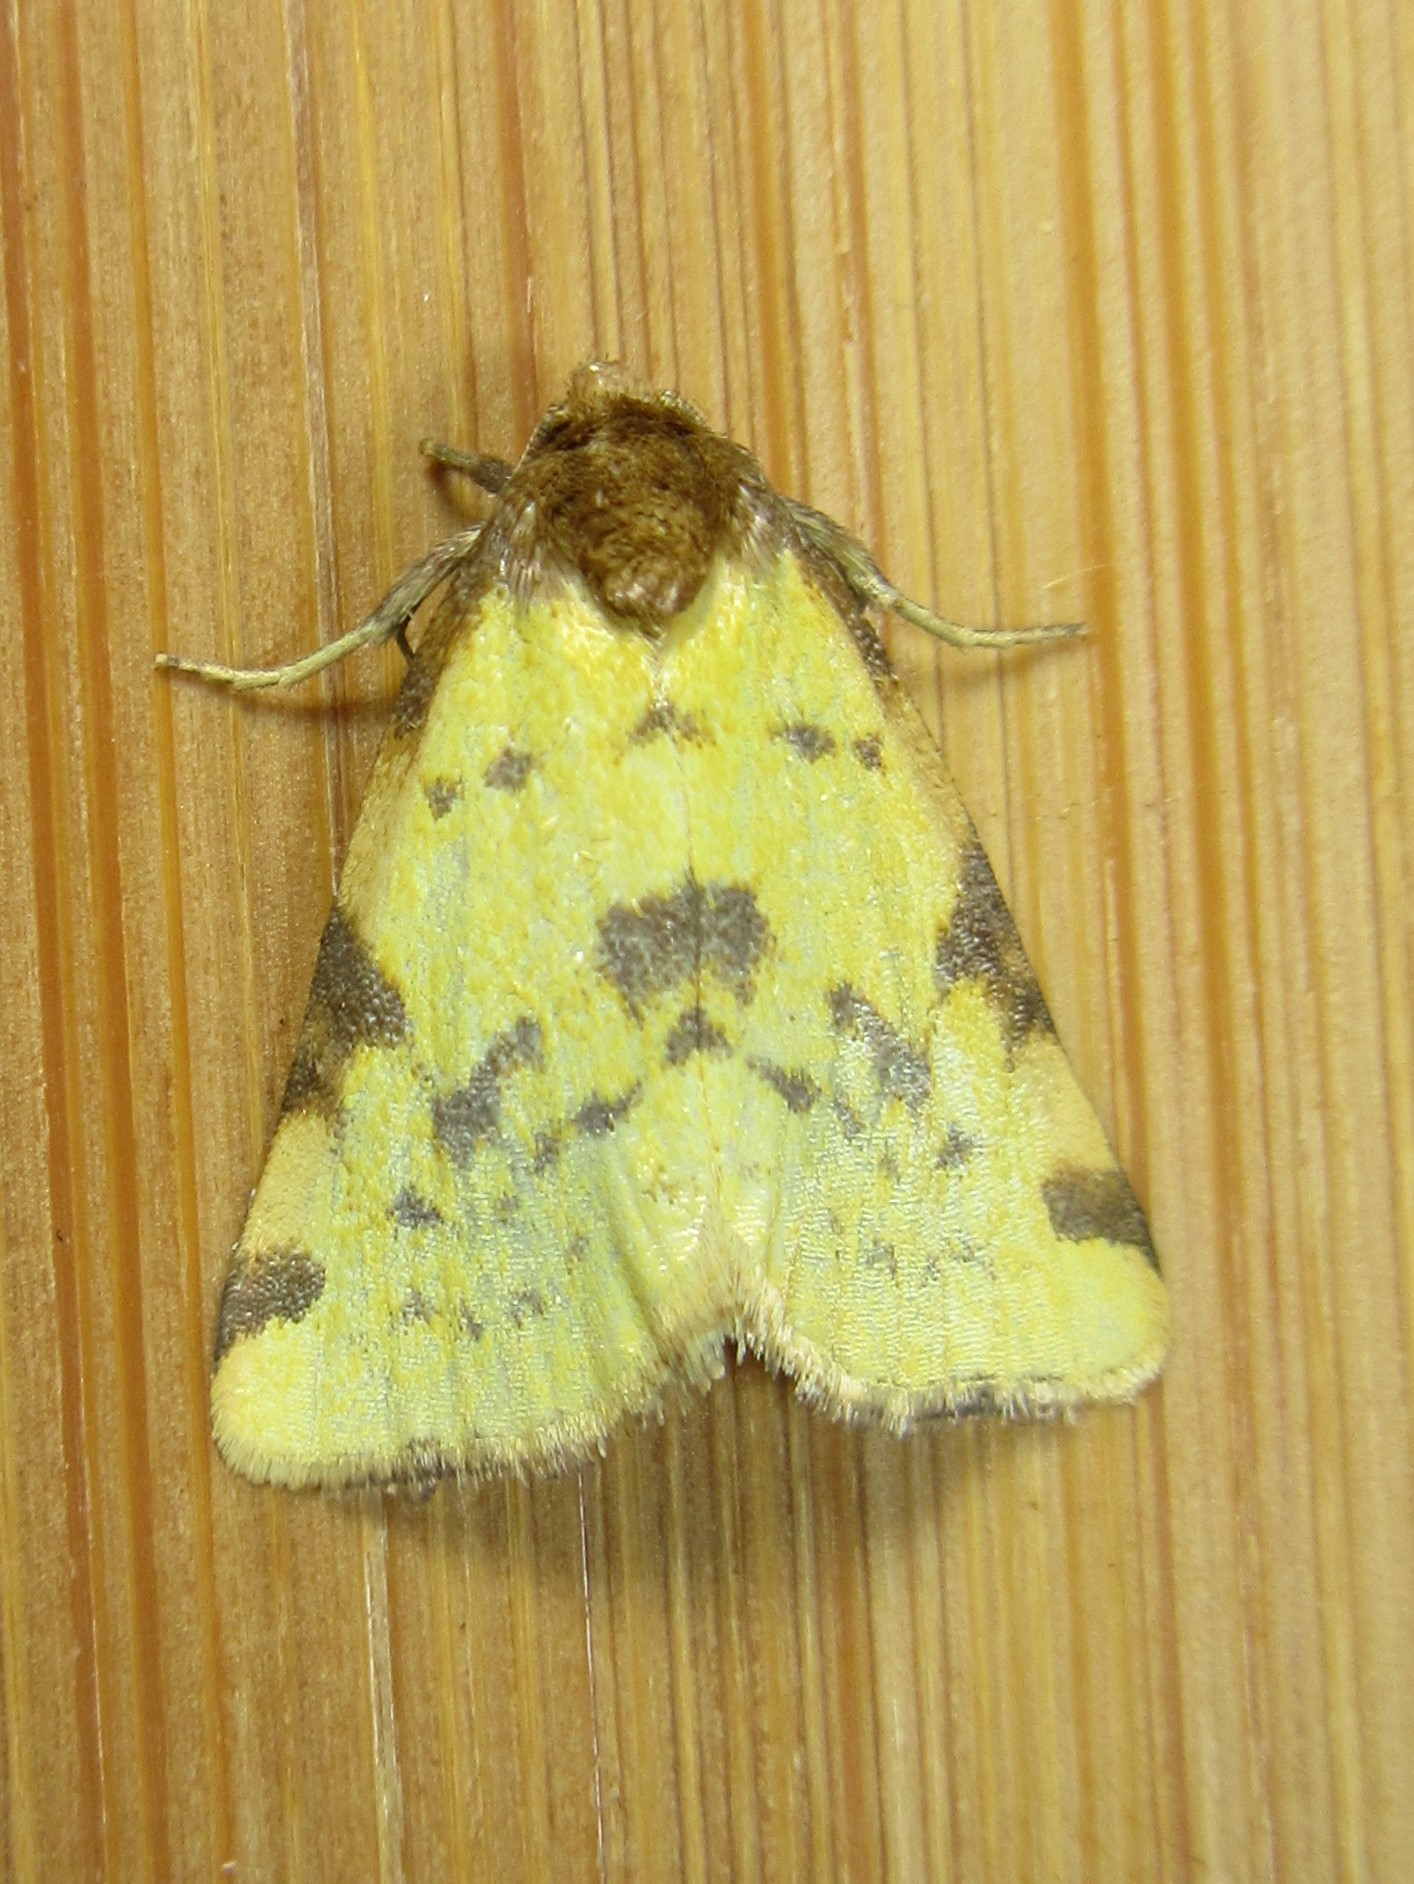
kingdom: Animalia
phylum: Arthropoda
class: Insecta
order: Lepidoptera
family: Noctuidae
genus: Azenia
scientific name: Azenia obtusa
